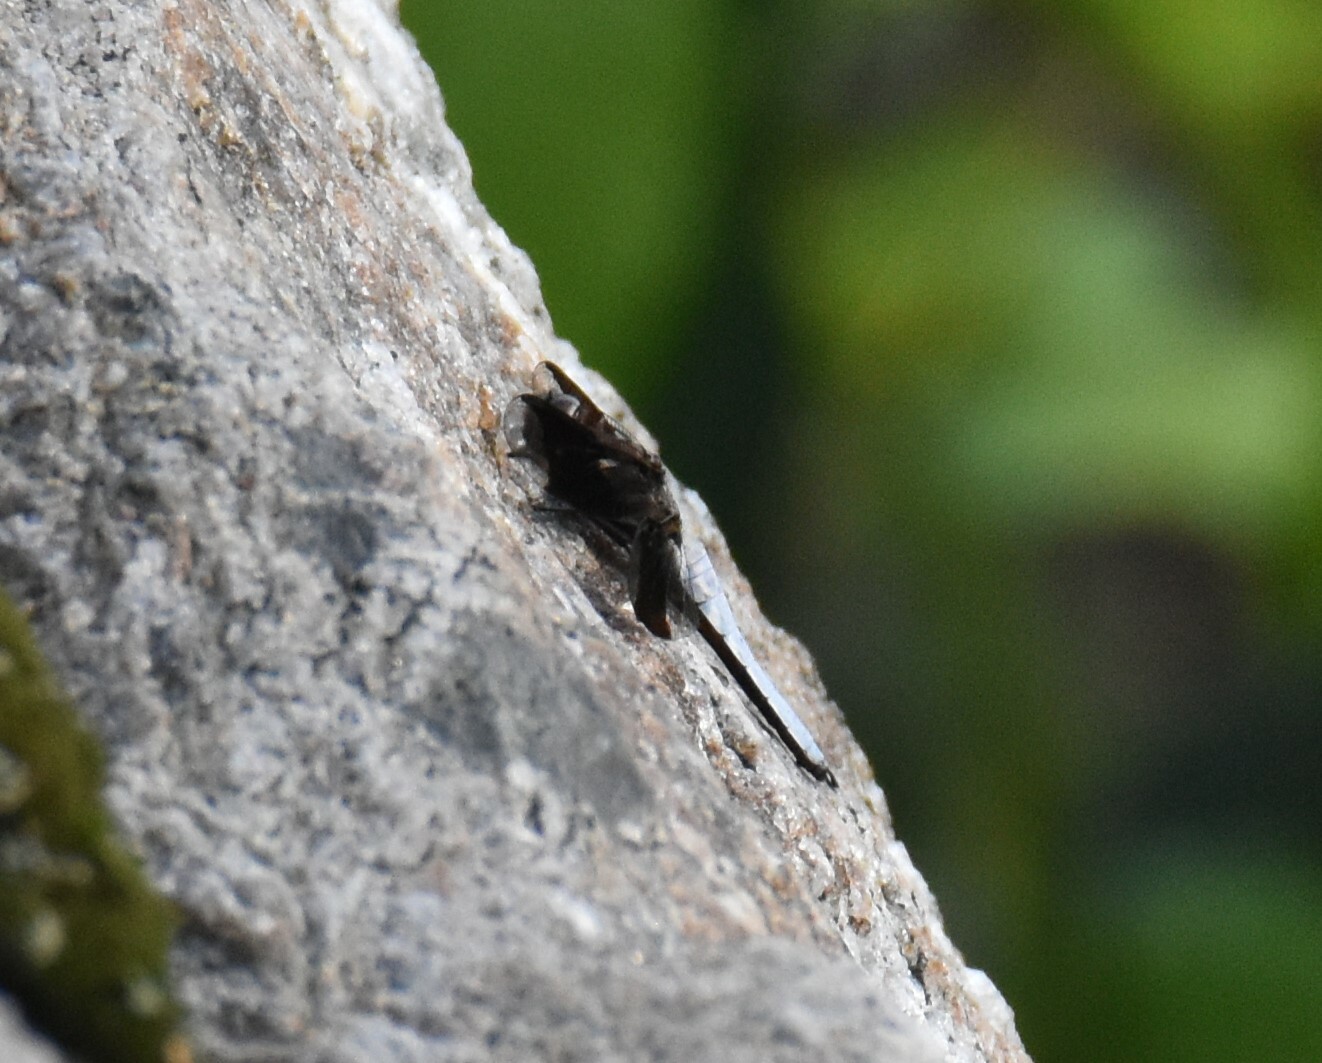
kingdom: Animalia
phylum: Arthropoda
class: Insecta
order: Odonata
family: Libellulidae
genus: Plathemis
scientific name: Plathemis lydia
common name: Common whitetail
